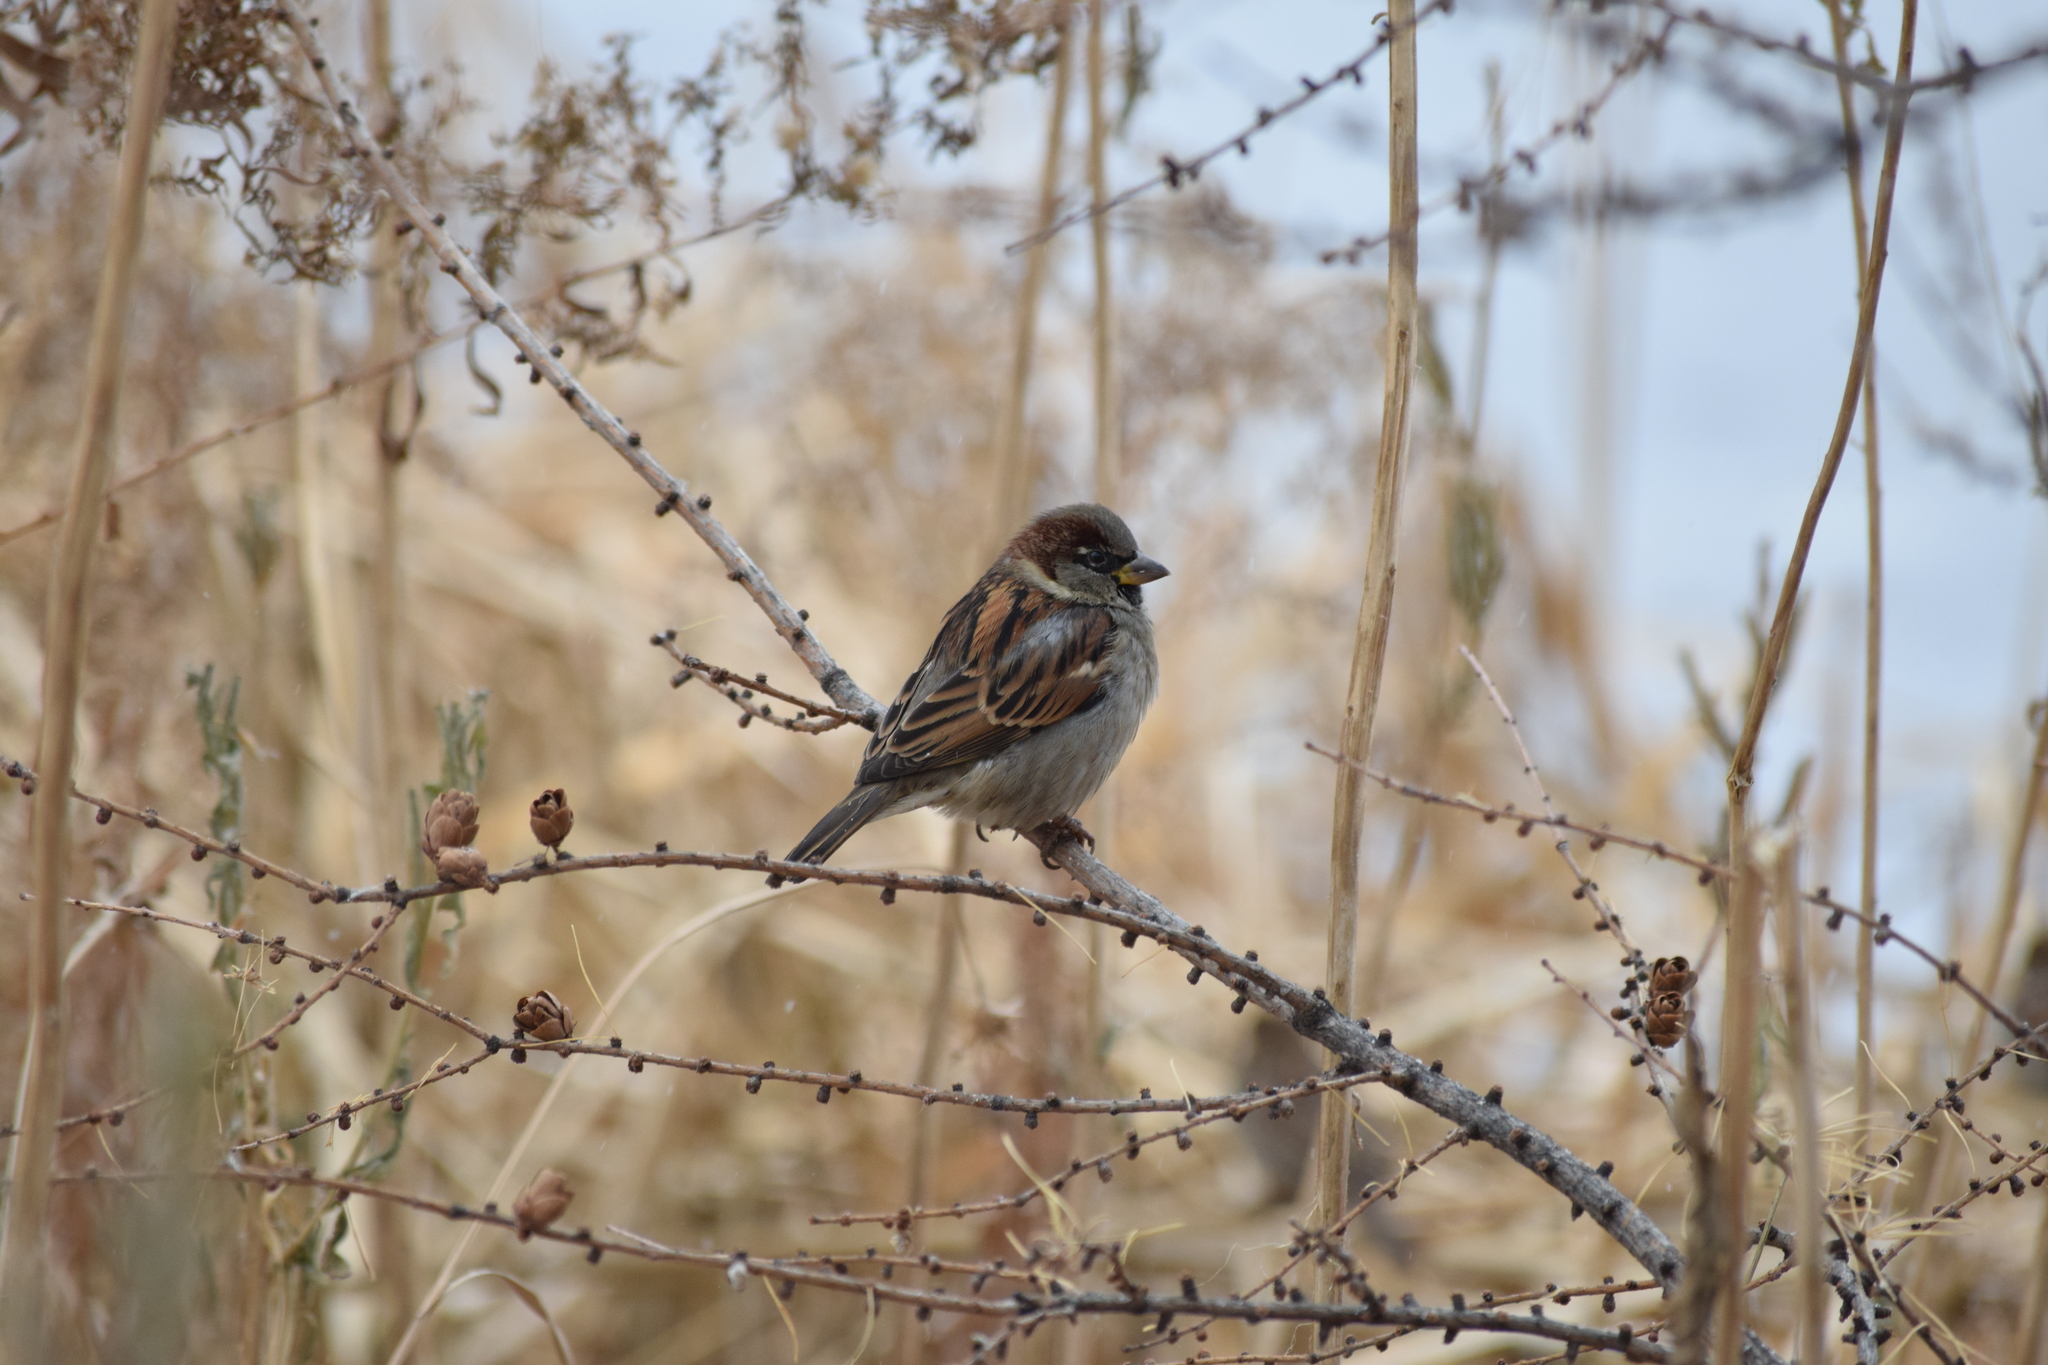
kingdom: Animalia
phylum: Chordata
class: Aves
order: Passeriformes
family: Passeridae
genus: Passer
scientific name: Passer domesticus
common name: House sparrow
